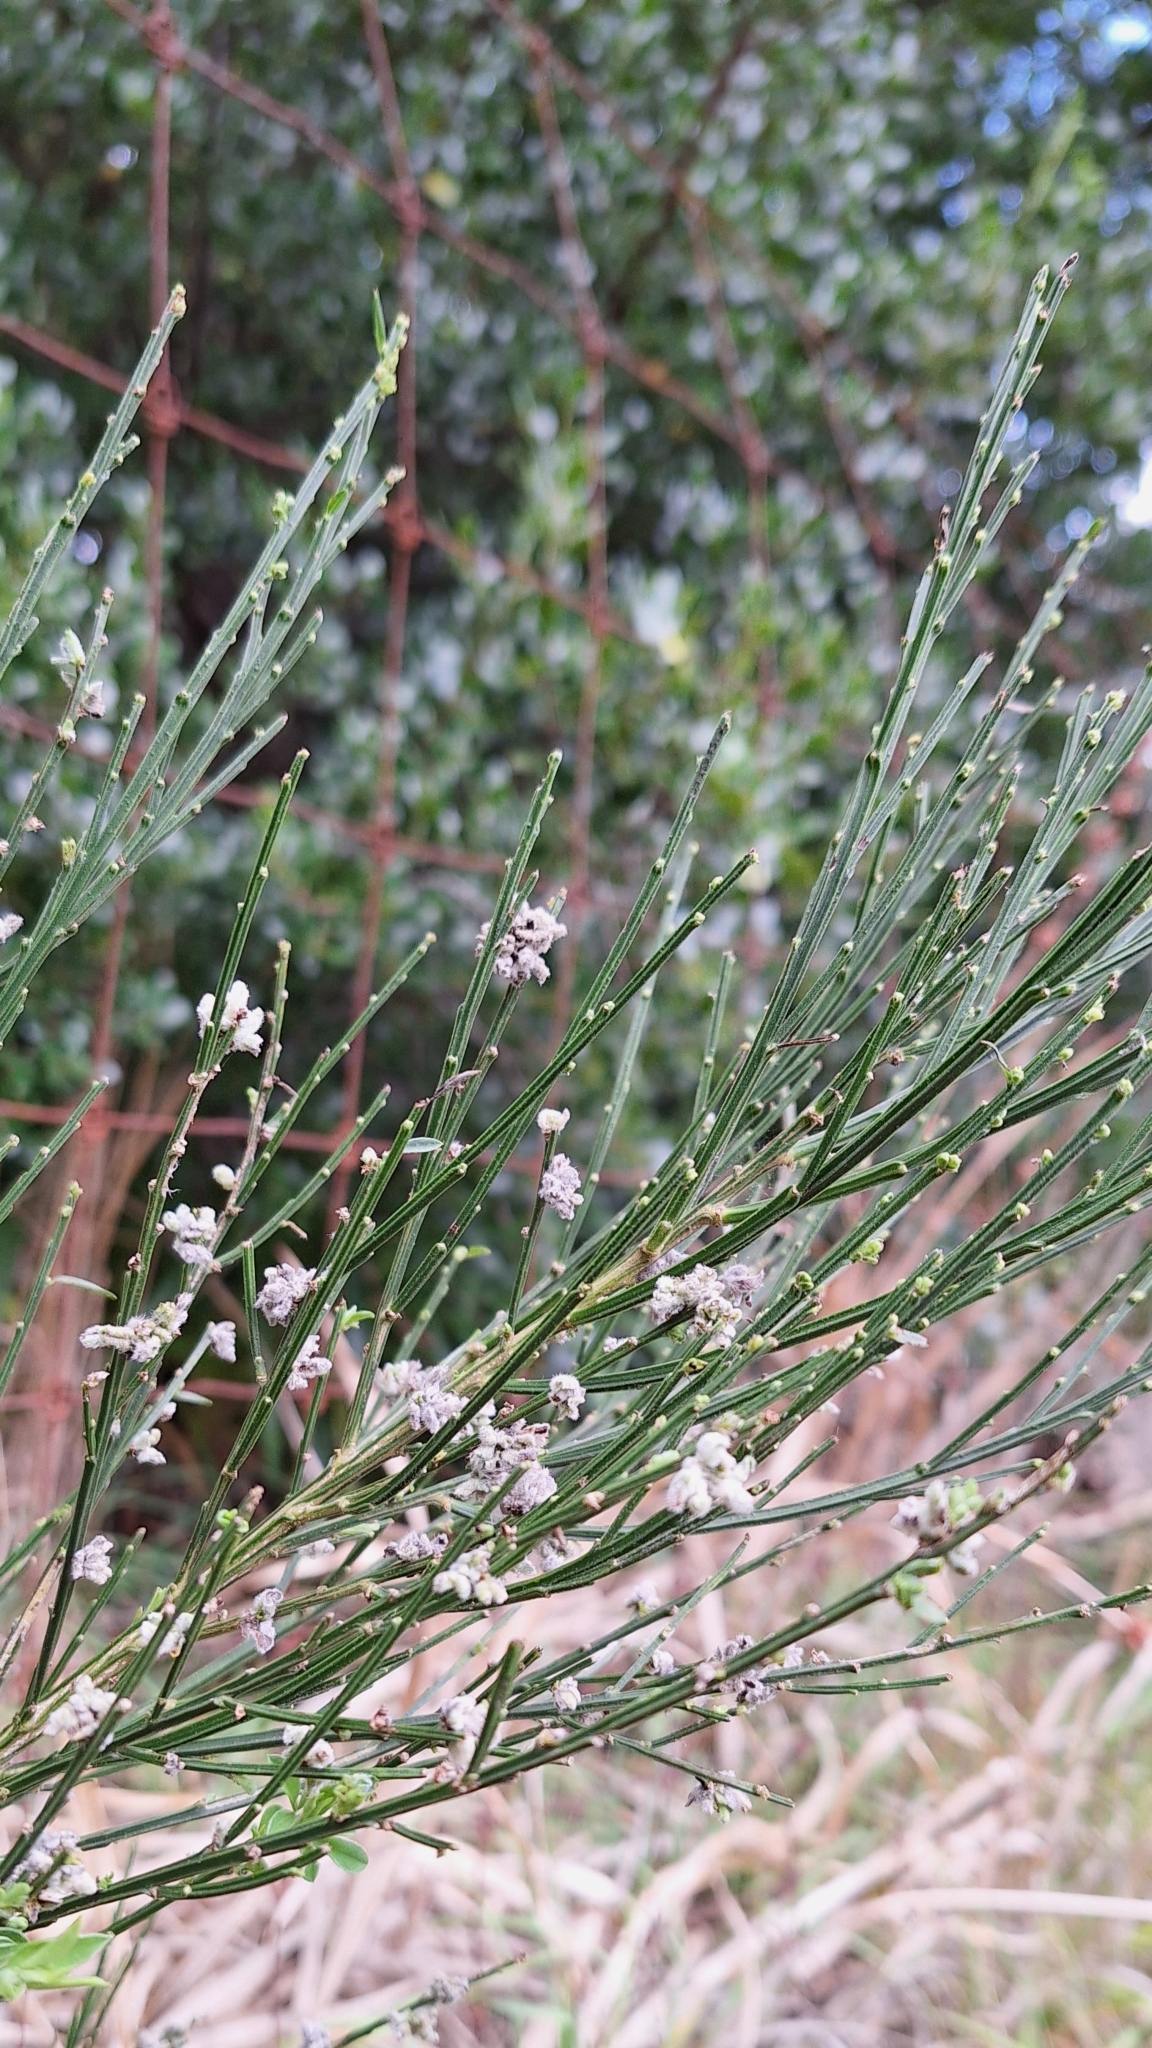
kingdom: Plantae
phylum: Tracheophyta
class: Magnoliopsida
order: Fabales
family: Fabaceae
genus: Cytisus
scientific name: Cytisus scoparius
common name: Scotch broom
